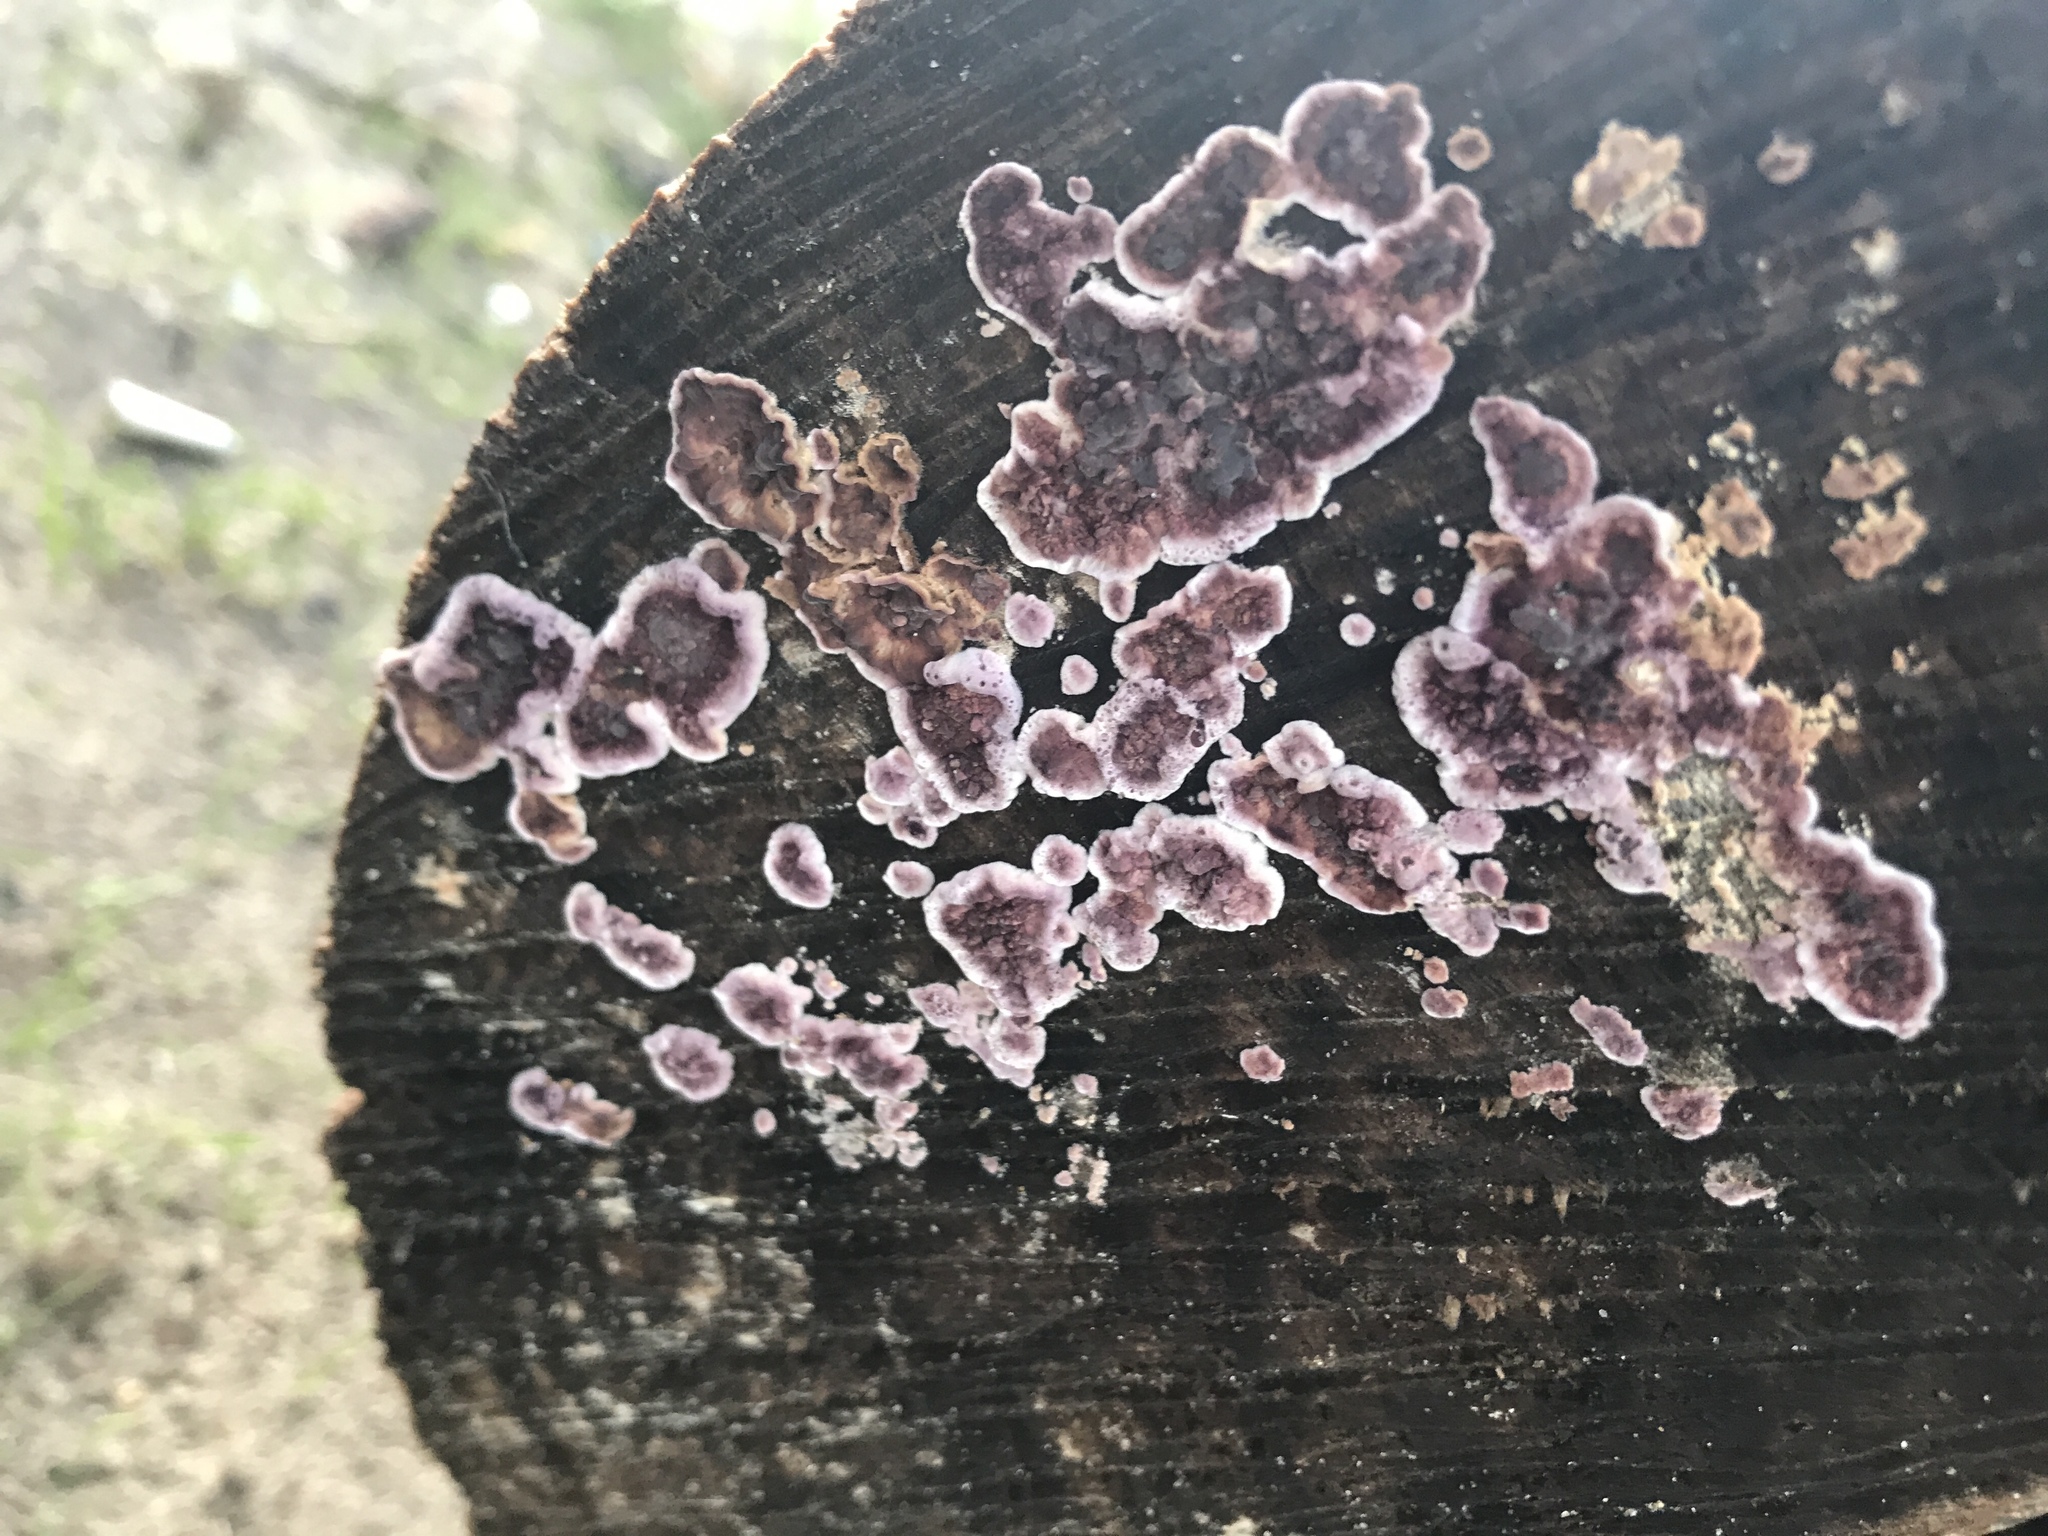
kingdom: Fungi
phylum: Basidiomycota
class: Agaricomycetes
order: Agaricales
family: Cyphellaceae
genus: Chondrostereum
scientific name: Chondrostereum purpureum
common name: Silver leaf disease
